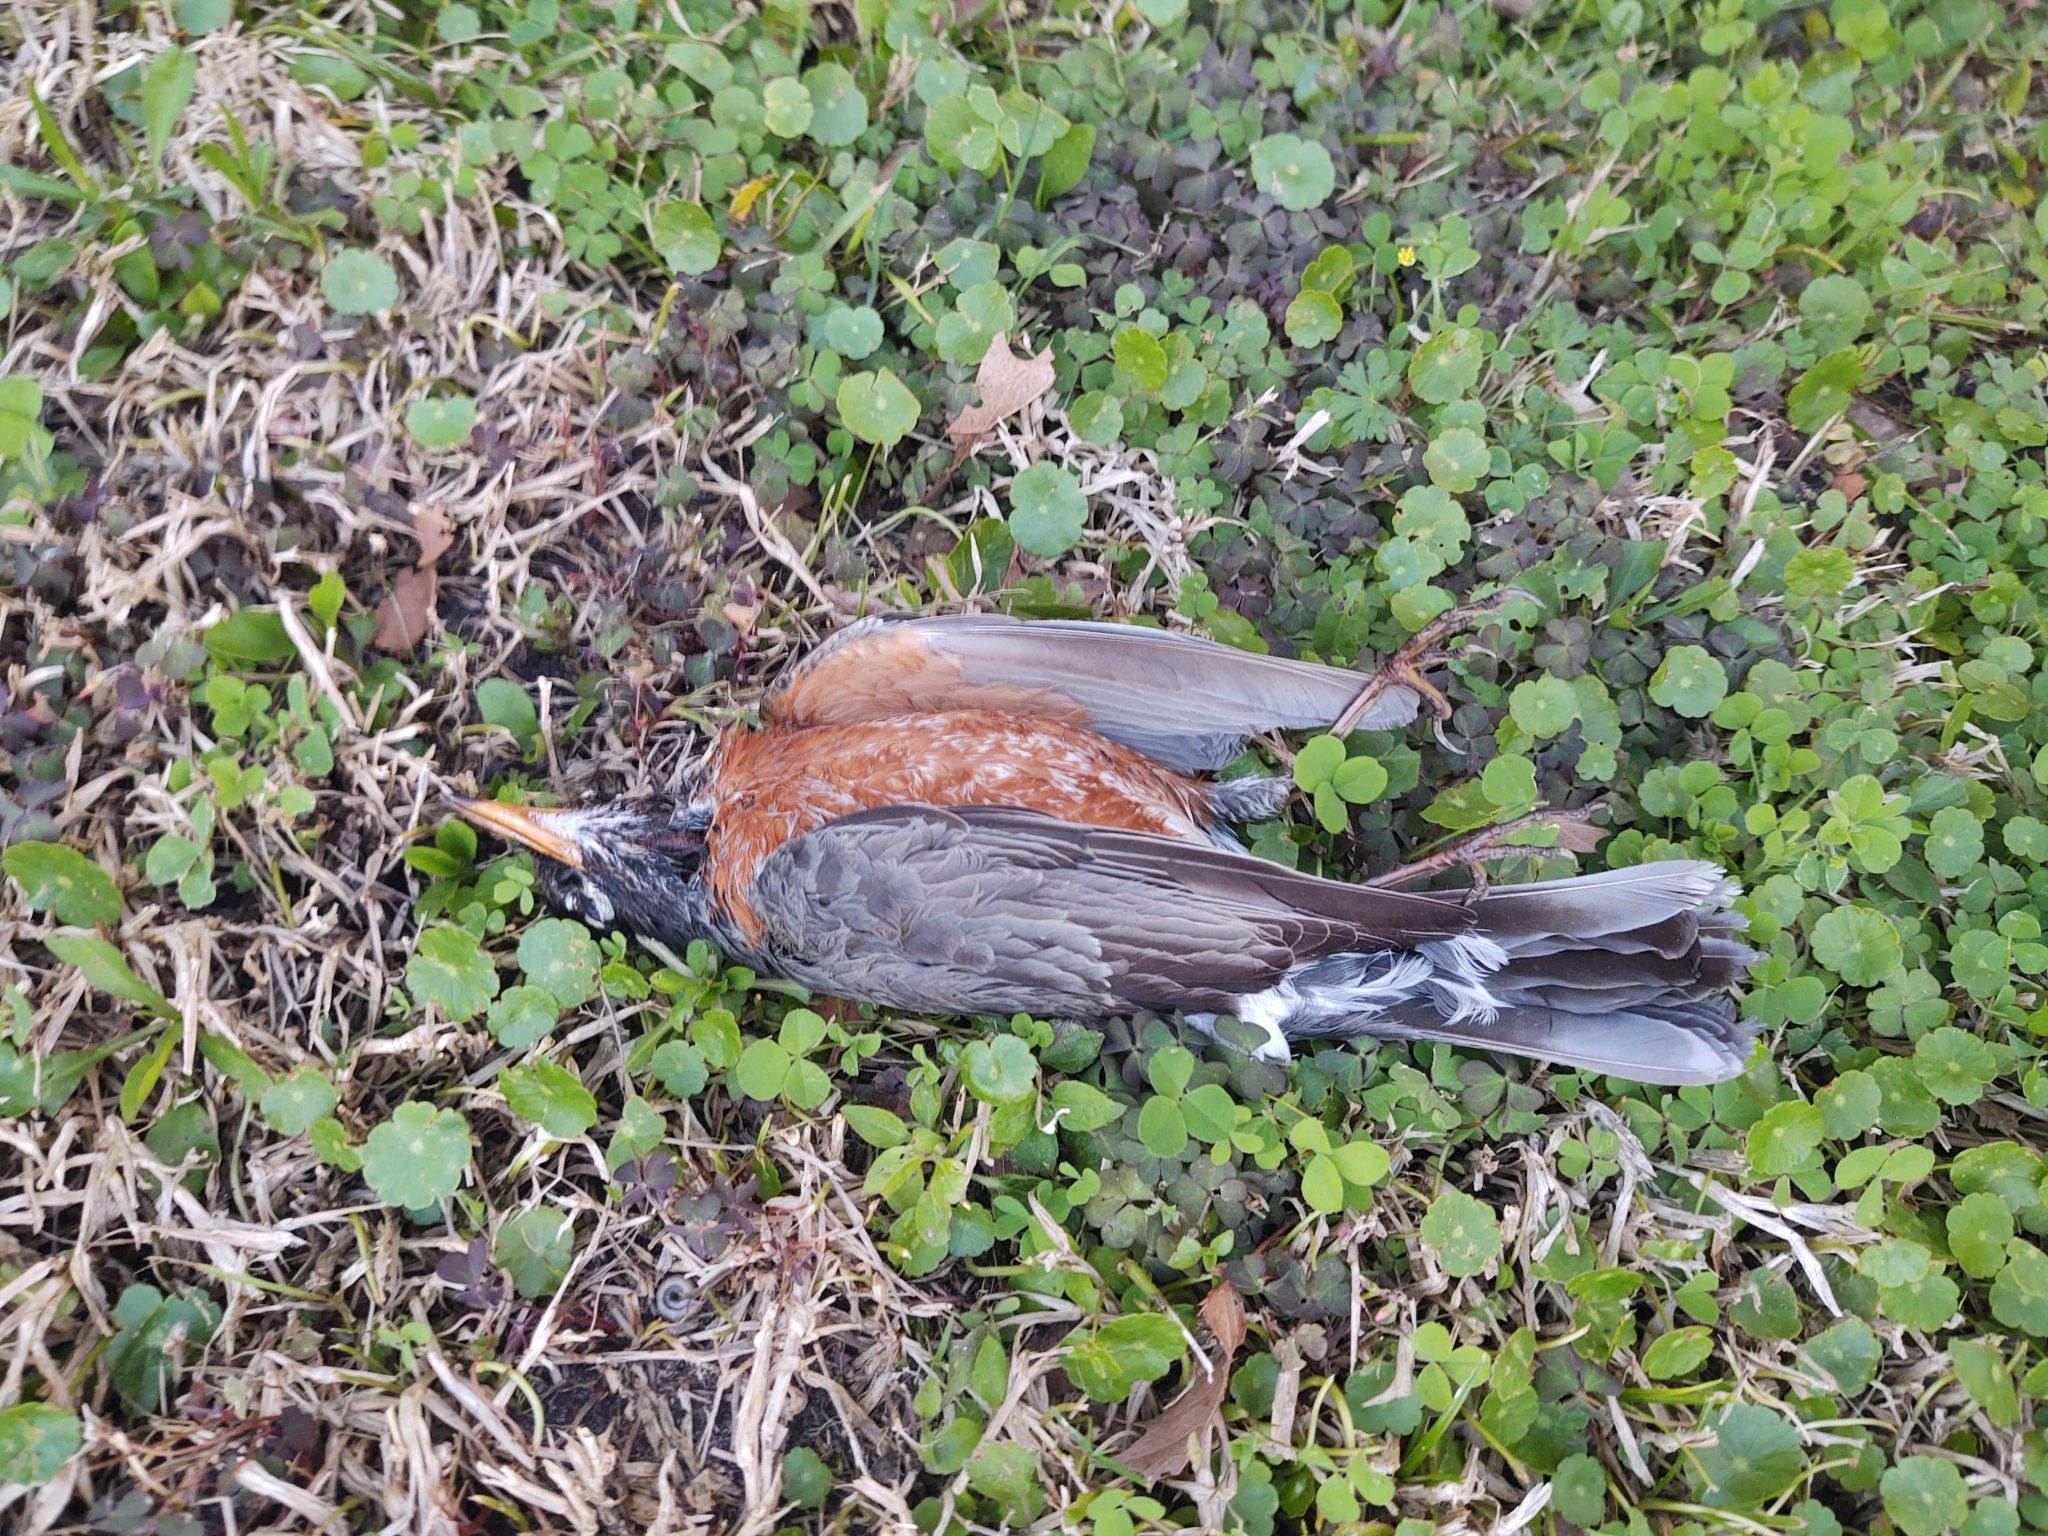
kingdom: Animalia
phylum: Chordata
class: Aves
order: Passeriformes
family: Turdidae
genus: Turdus
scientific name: Turdus migratorius
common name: American robin
